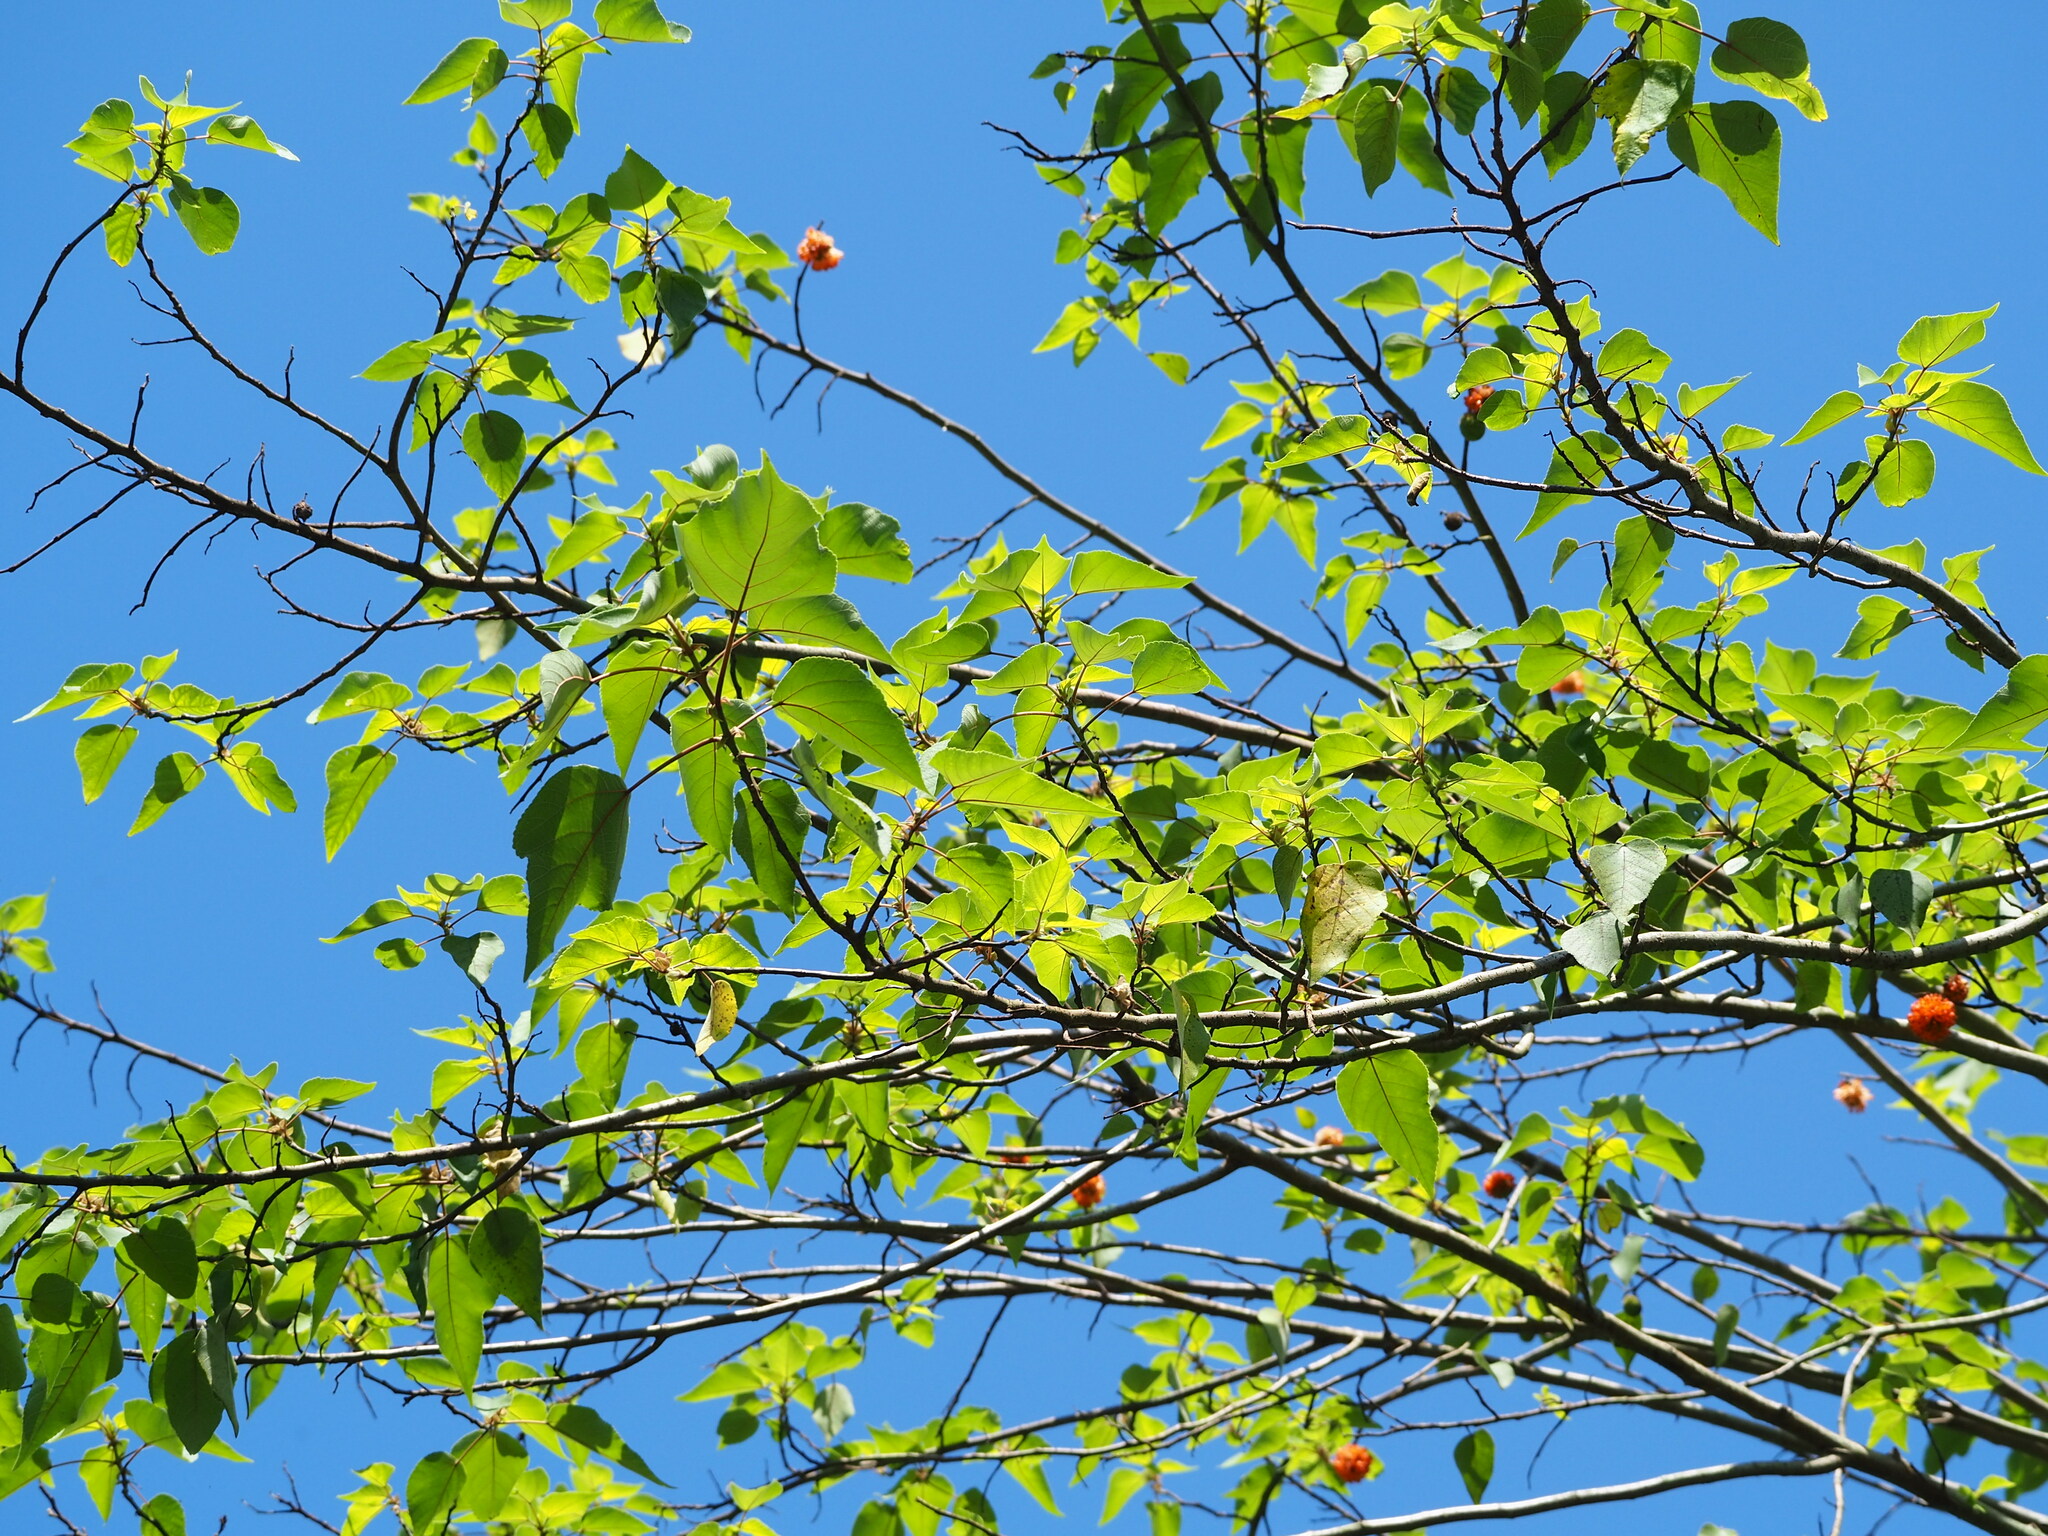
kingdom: Plantae
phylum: Tracheophyta
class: Magnoliopsida
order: Rosales
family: Moraceae
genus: Broussonetia
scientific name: Broussonetia papyrifera
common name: Paper mulberry
